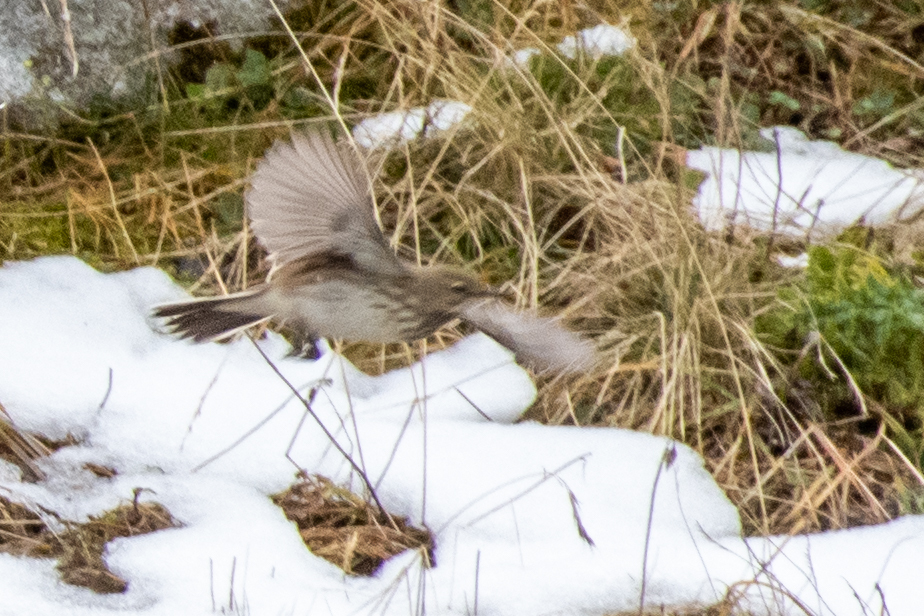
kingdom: Animalia
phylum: Chordata
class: Aves
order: Passeriformes
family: Motacillidae
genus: Anthus
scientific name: Anthus spinoletta
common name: Water pipit
